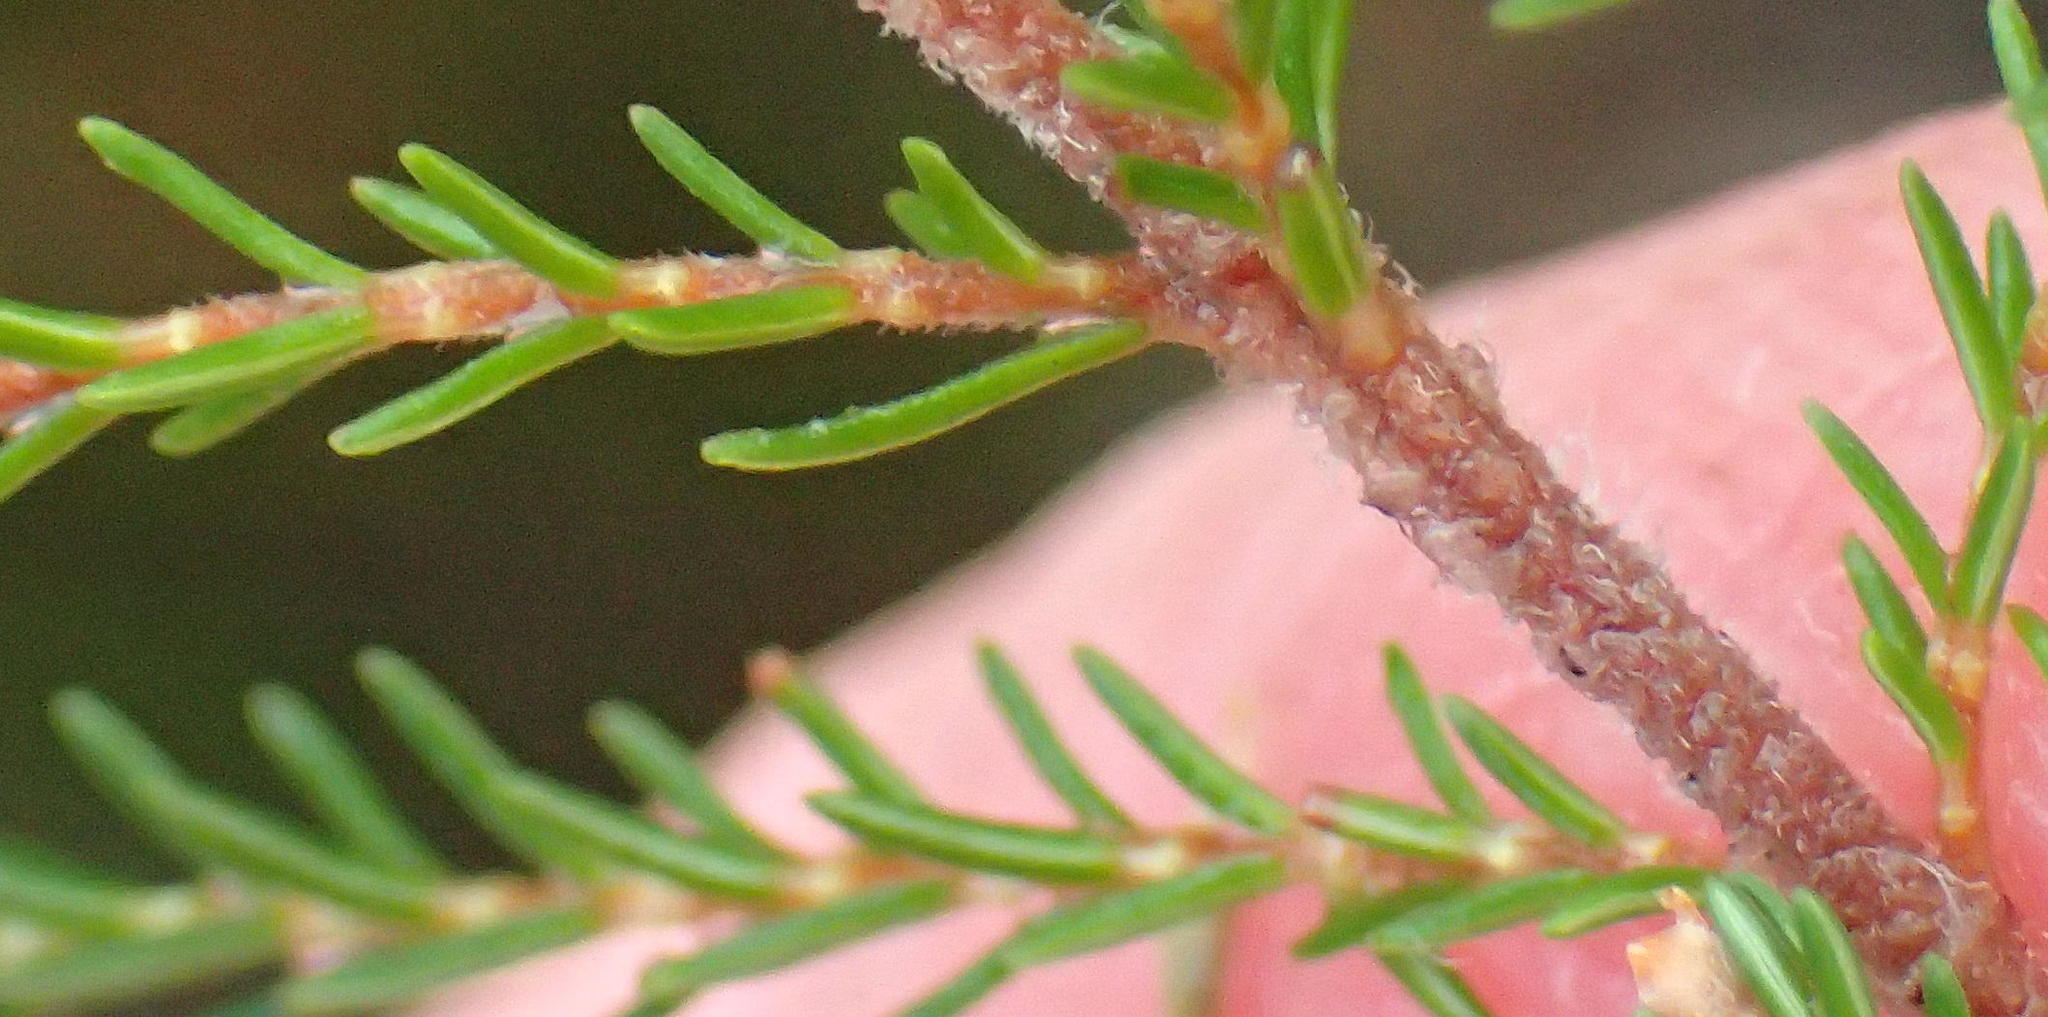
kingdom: Plantae
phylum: Tracheophyta
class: Magnoliopsida
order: Ericales
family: Ericaceae
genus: Erica
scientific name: Erica inconstans
